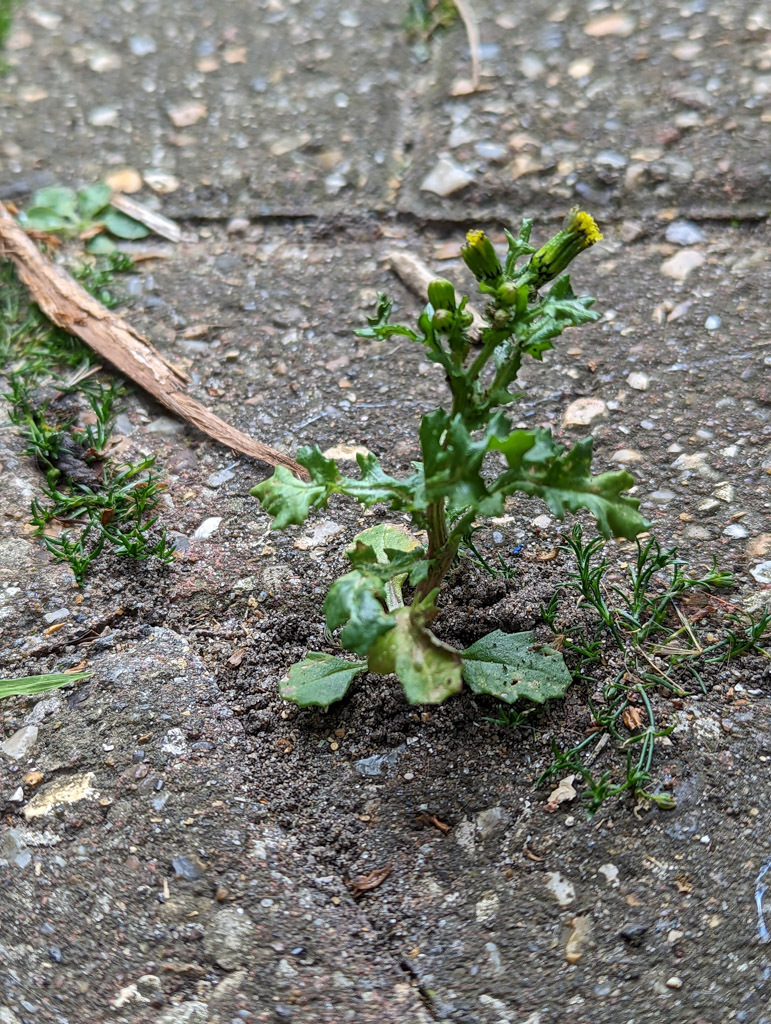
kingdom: Plantae
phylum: Tracheophyta
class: Magnoliopsida
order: Asterales
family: Asteraceae
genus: Senecio
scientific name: Senecio vulgaris
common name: Old-man-in-the-spring
